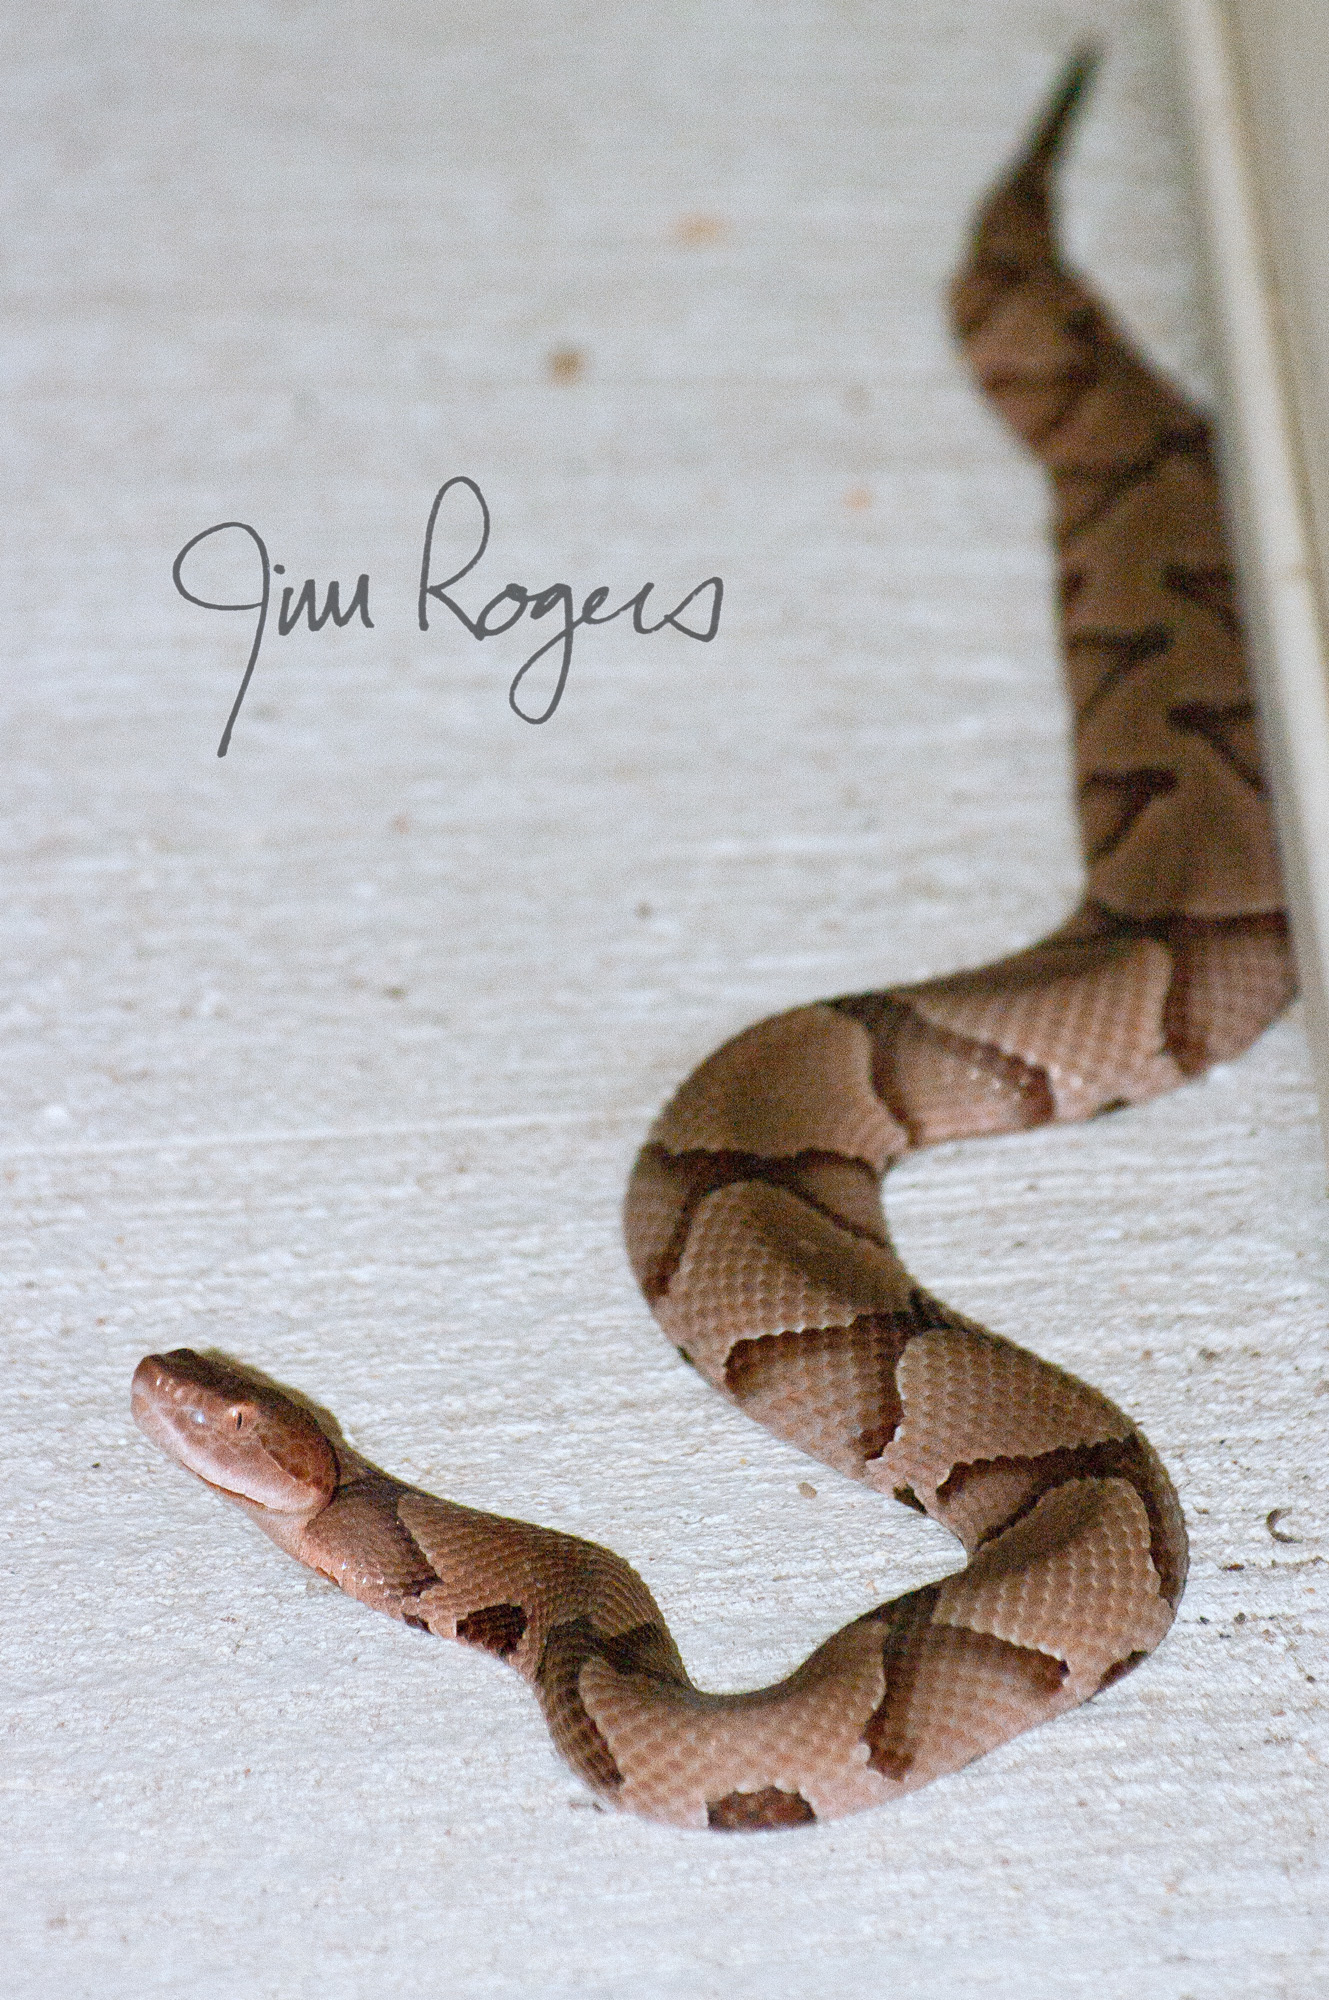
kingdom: Animalia
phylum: Chordata
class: Squamata
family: Viperidae
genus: Agkistrodon
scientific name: Agkistrodon contortrix
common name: Northern copperhead
